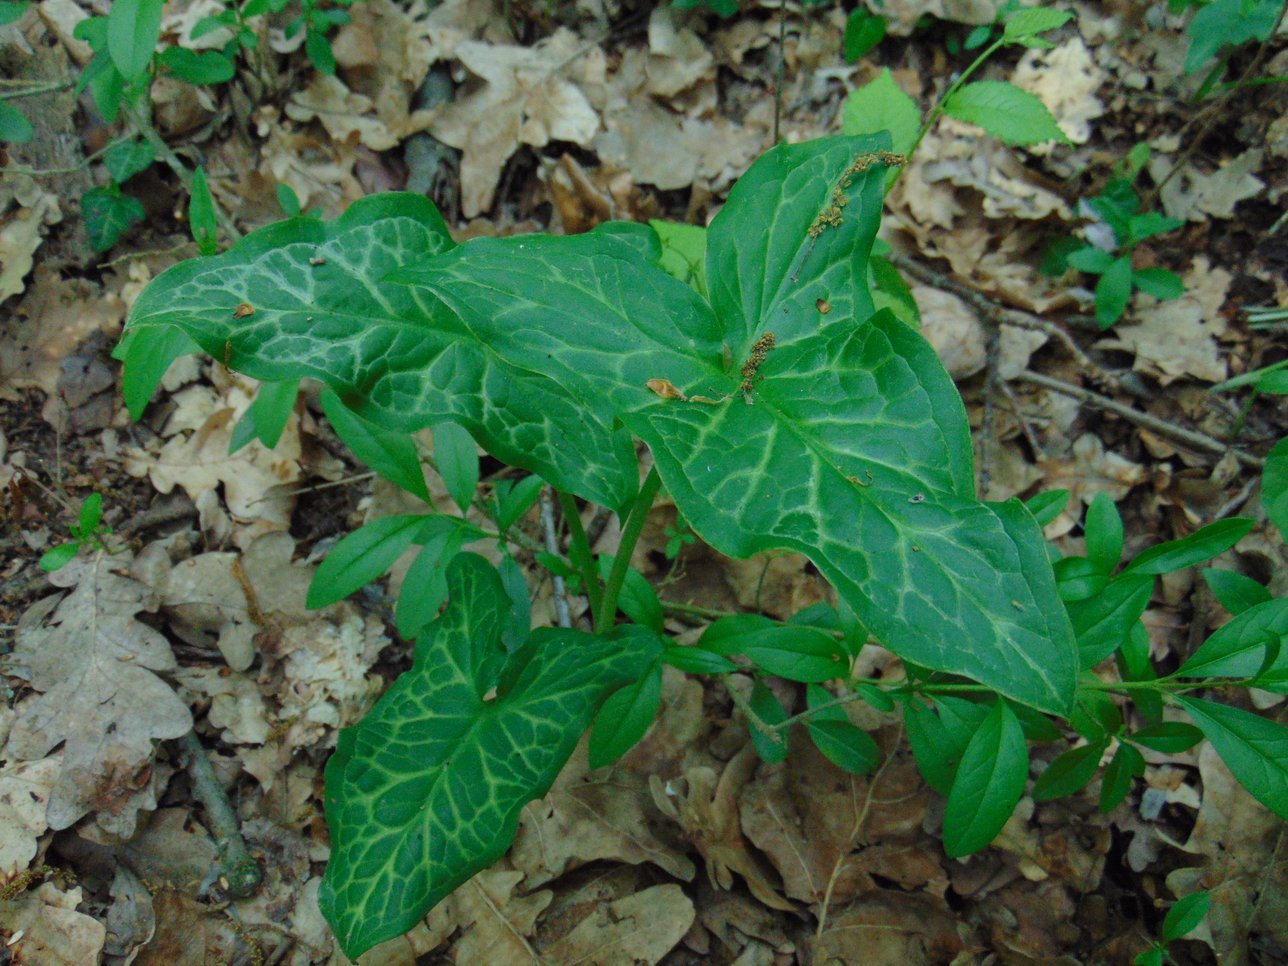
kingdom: Plantae
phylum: Tracheophyta
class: Liliopsida
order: Alismatales
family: Araceae
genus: Arum
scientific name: Arum italicum
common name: Italian lords-and-ladies
